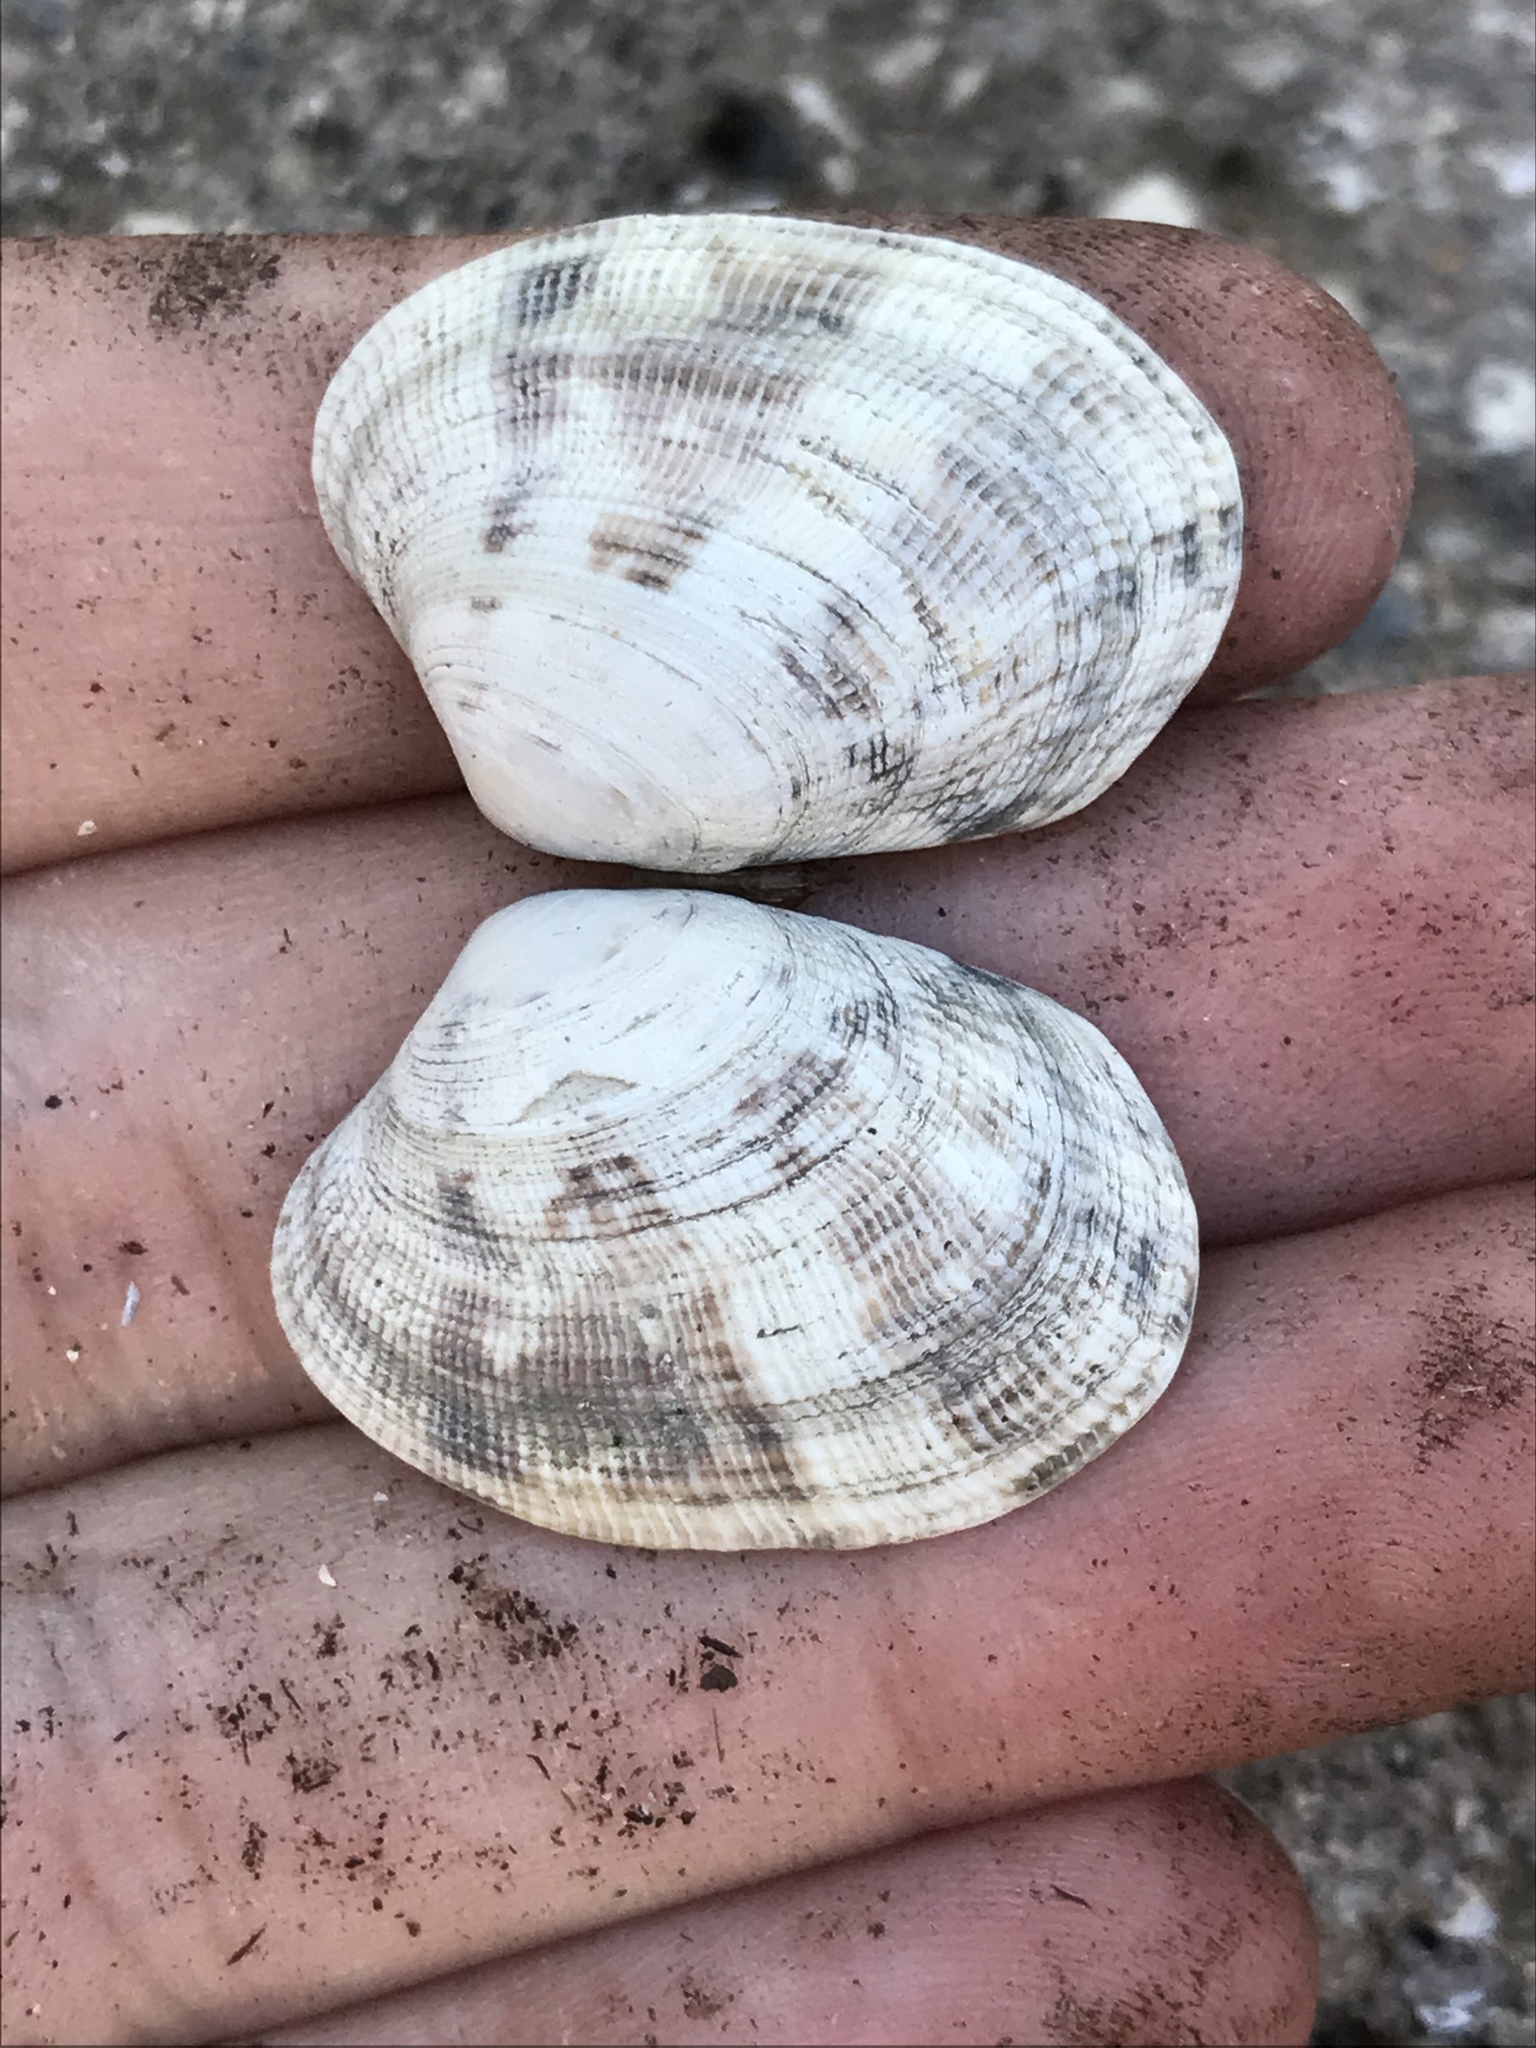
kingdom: Animalia
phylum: Mollusca
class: Bivalvia
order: Venerida
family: Veneridae
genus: Ruditapes
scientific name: Ruditapes philippinarum
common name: Manila clam
